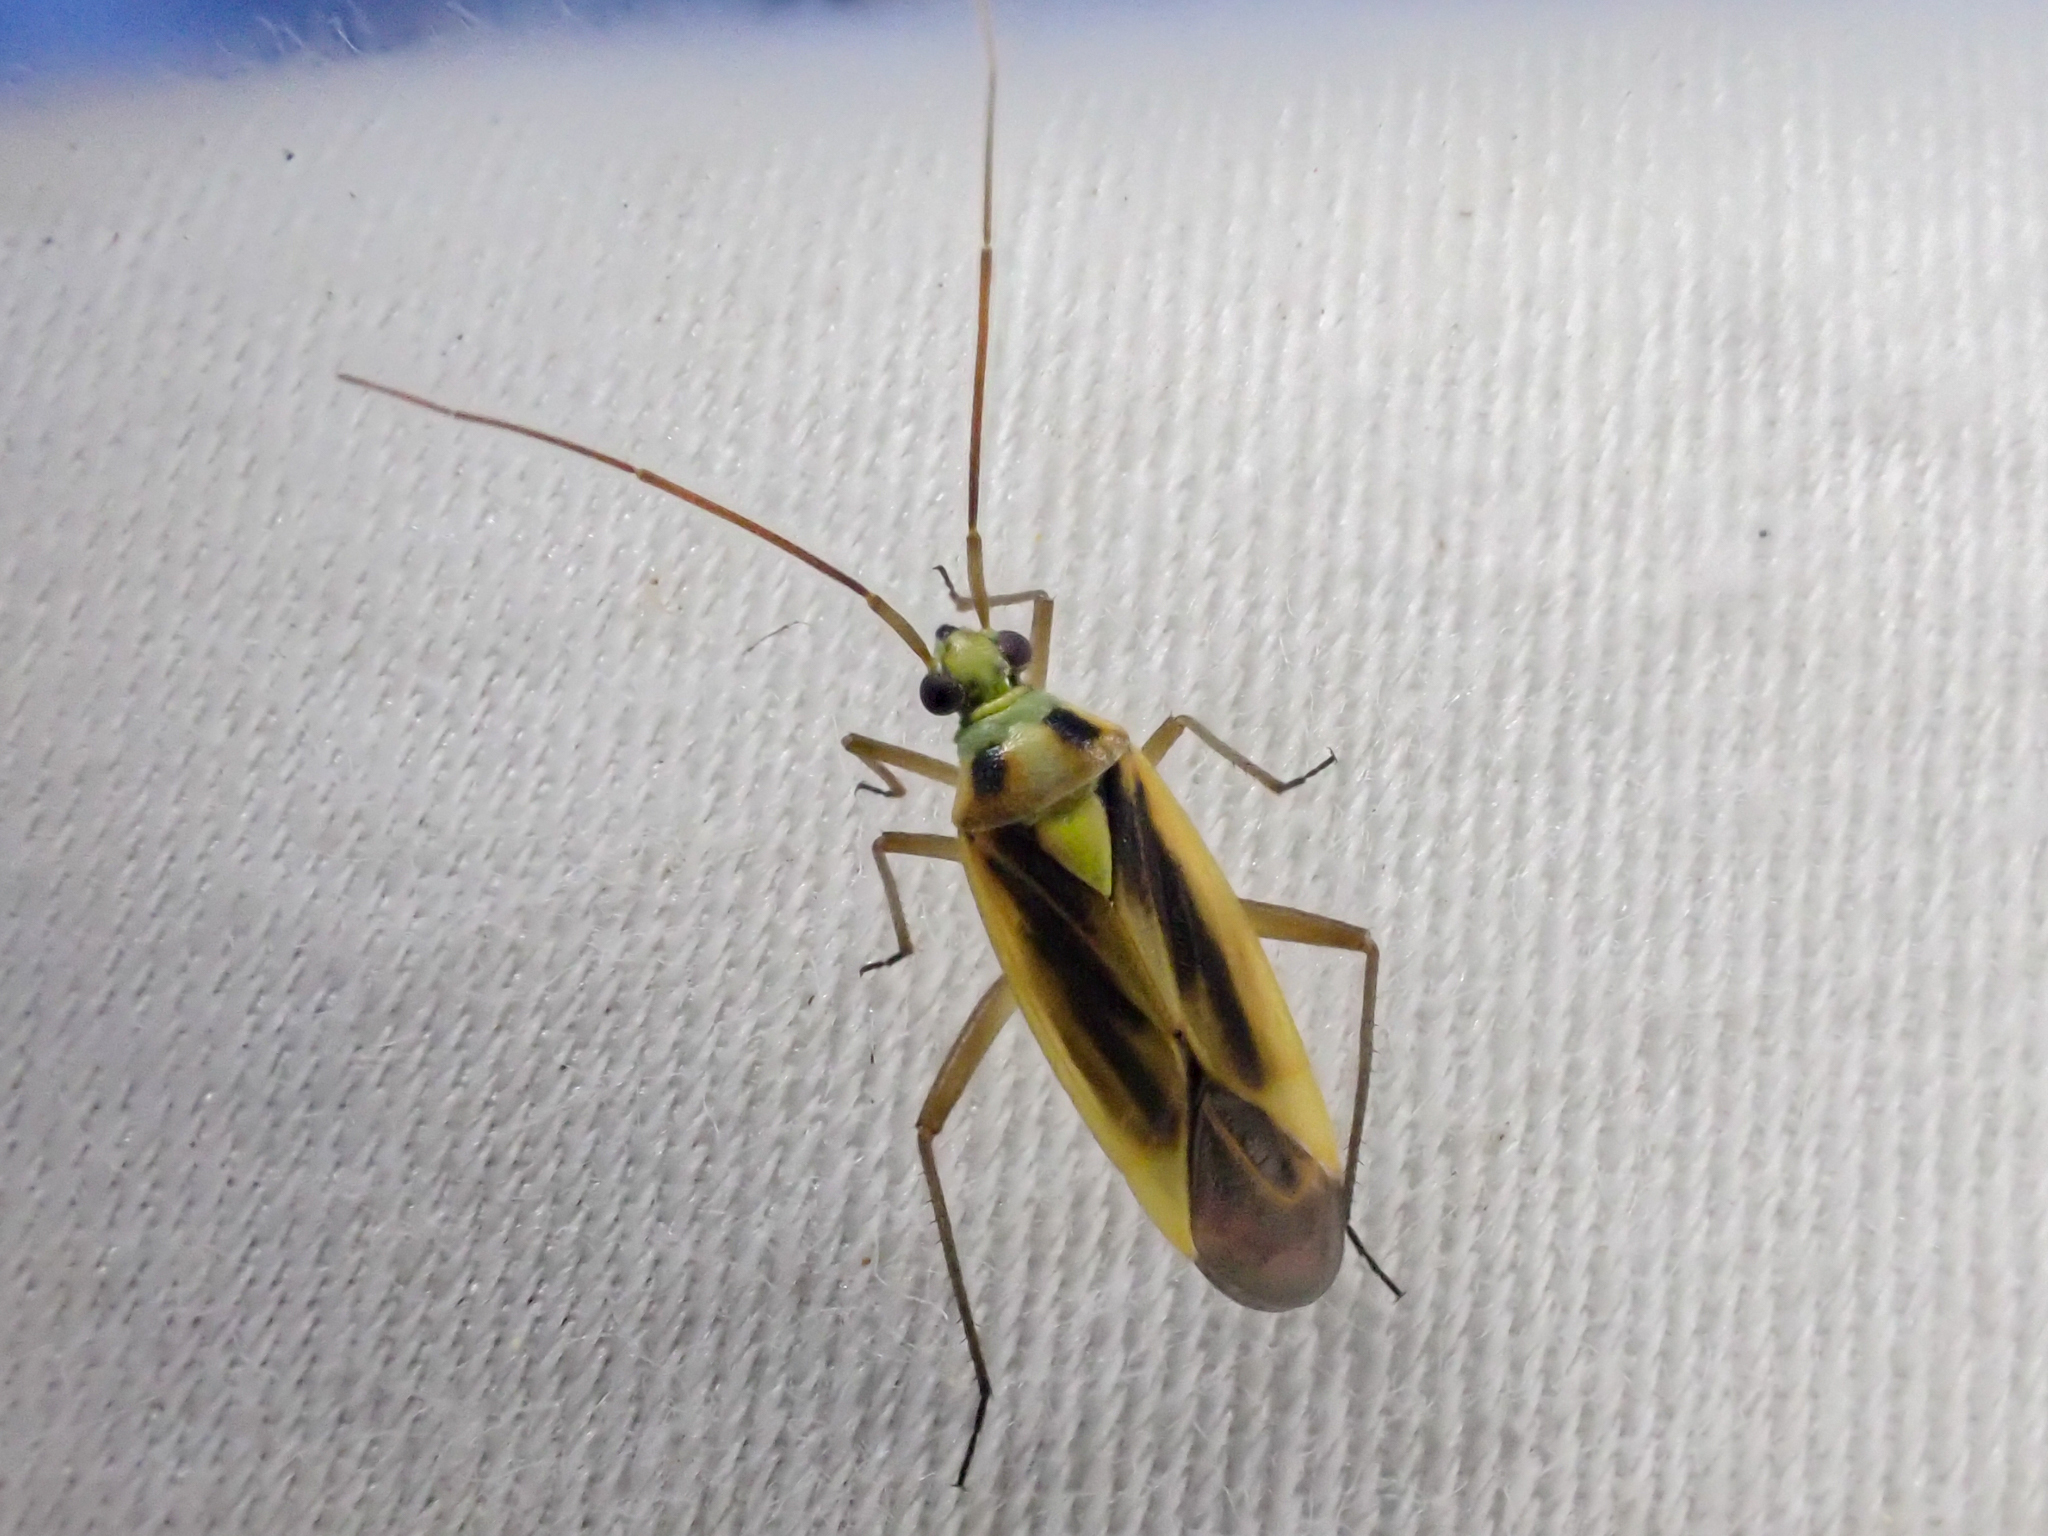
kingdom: Animalia
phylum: Arthropoda
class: Insecta
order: Hemiptera
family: Miridae
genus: Stenotus
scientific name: Stenotus binotatus
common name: Plant bug
